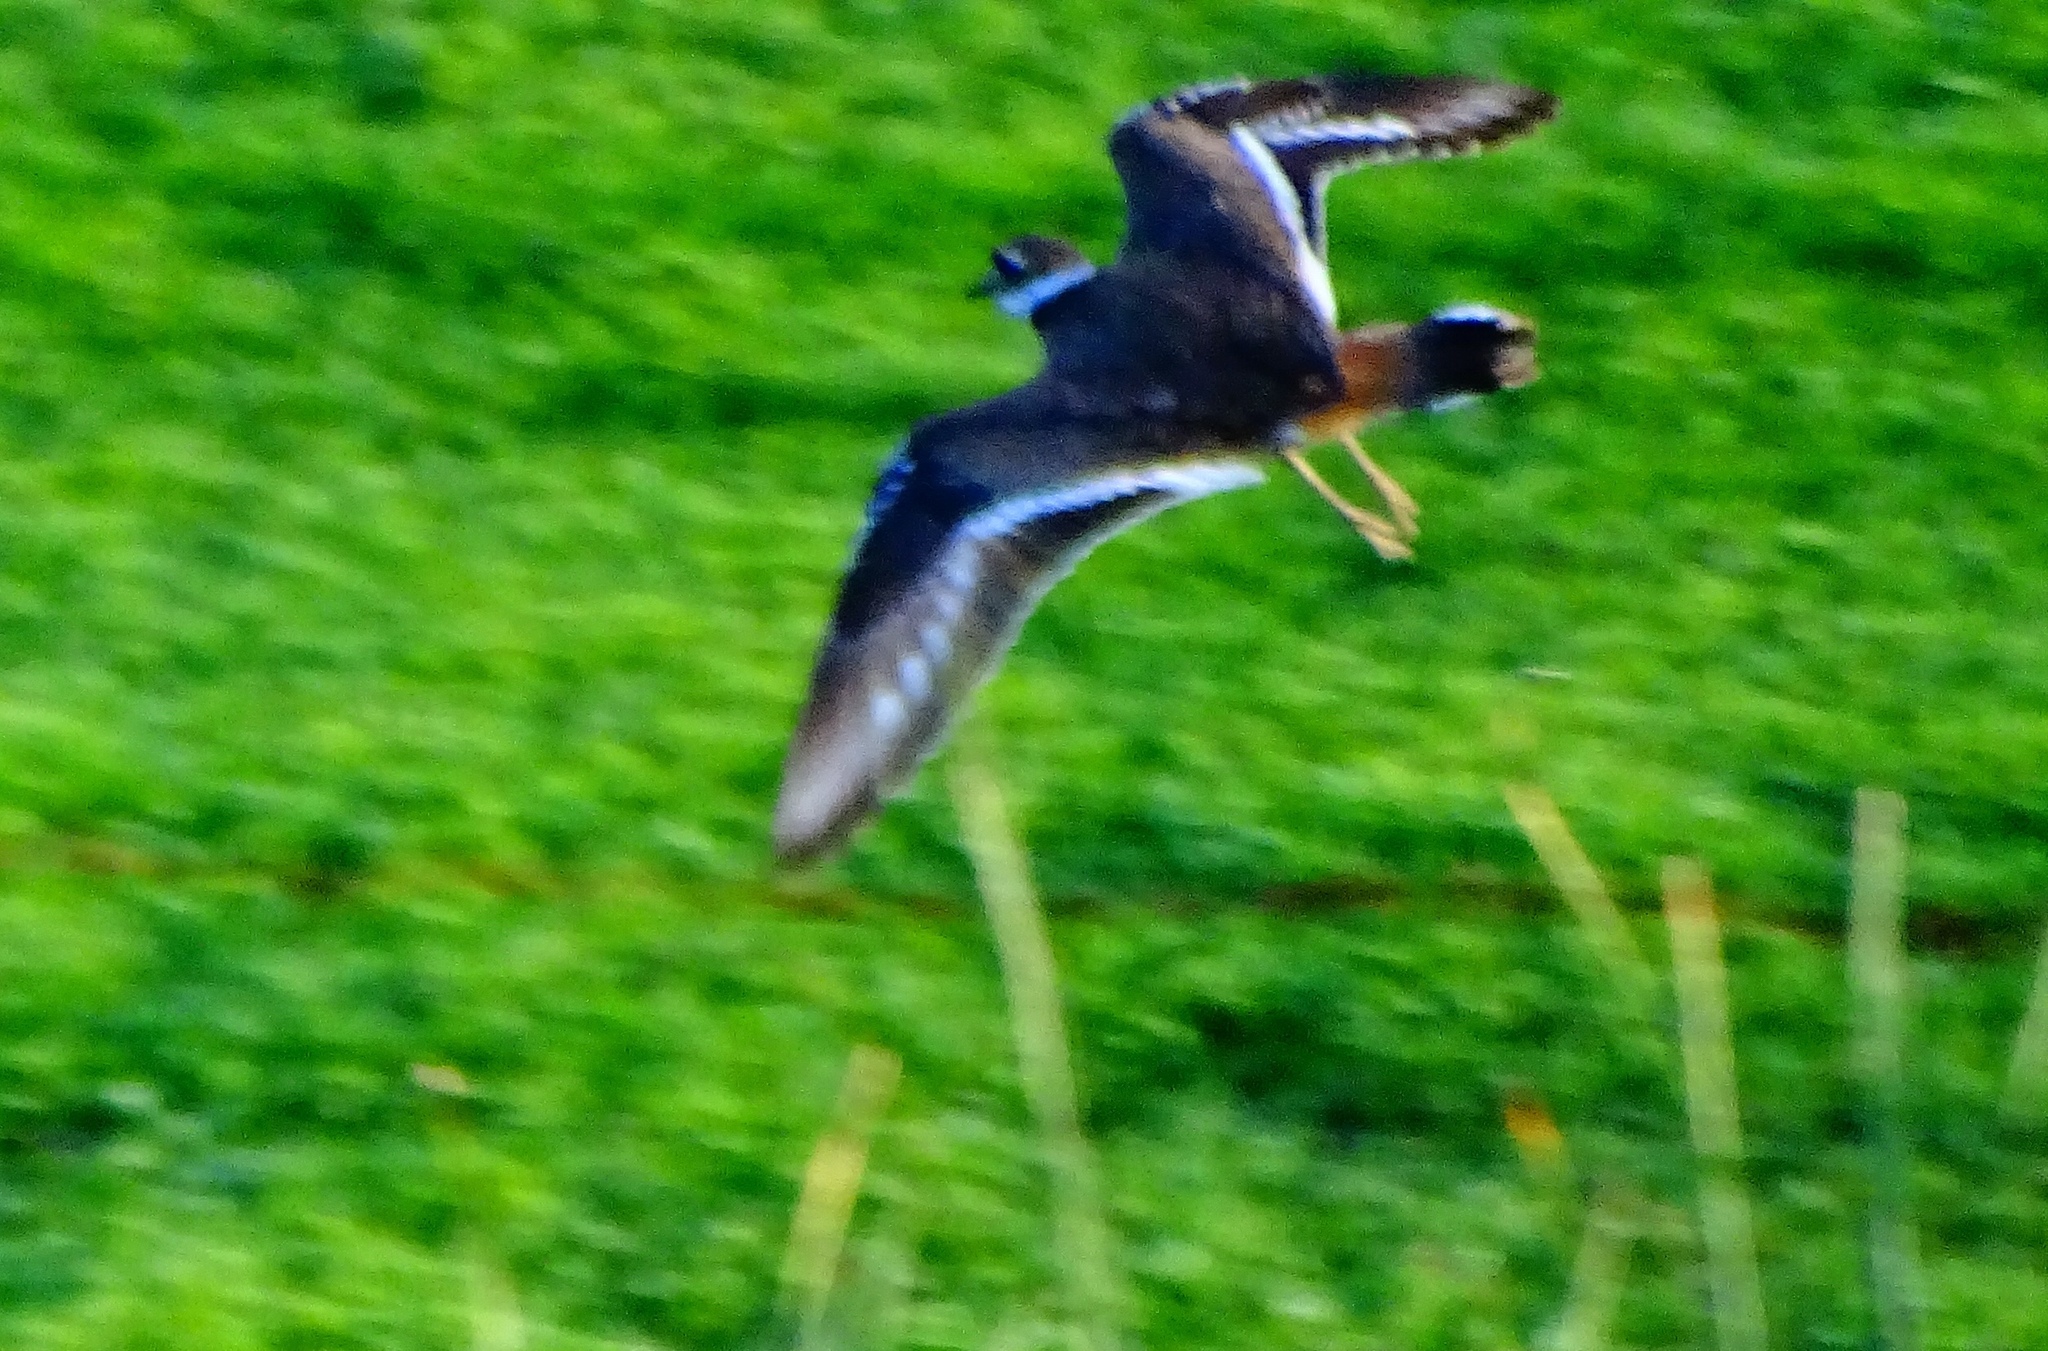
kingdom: Animalia
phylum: Chordata
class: Aves
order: Charadriiformes
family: Charadriidae
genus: Charadrius
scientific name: Charadrius vociferus
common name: Killdeer
